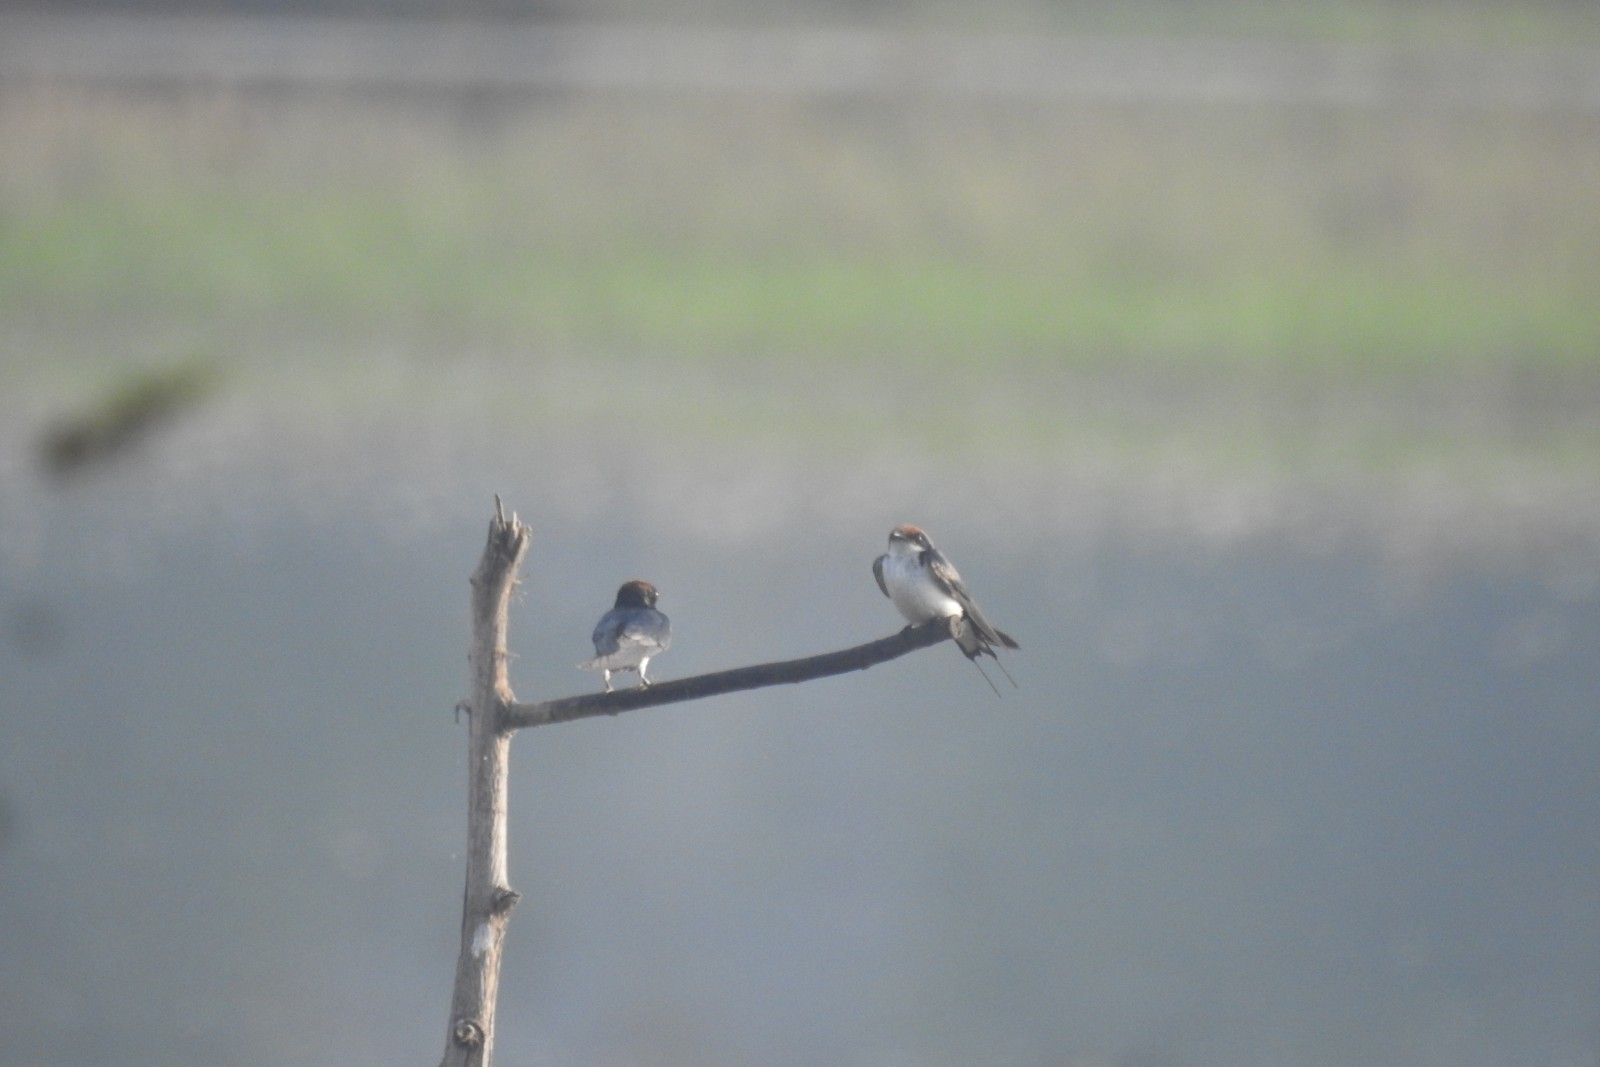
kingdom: Animalia
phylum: Chordata
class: Aves
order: Passeriformes
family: Hirundinidae
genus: Hirundo
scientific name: Hirundo smithii
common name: Wire-tailed swallow
